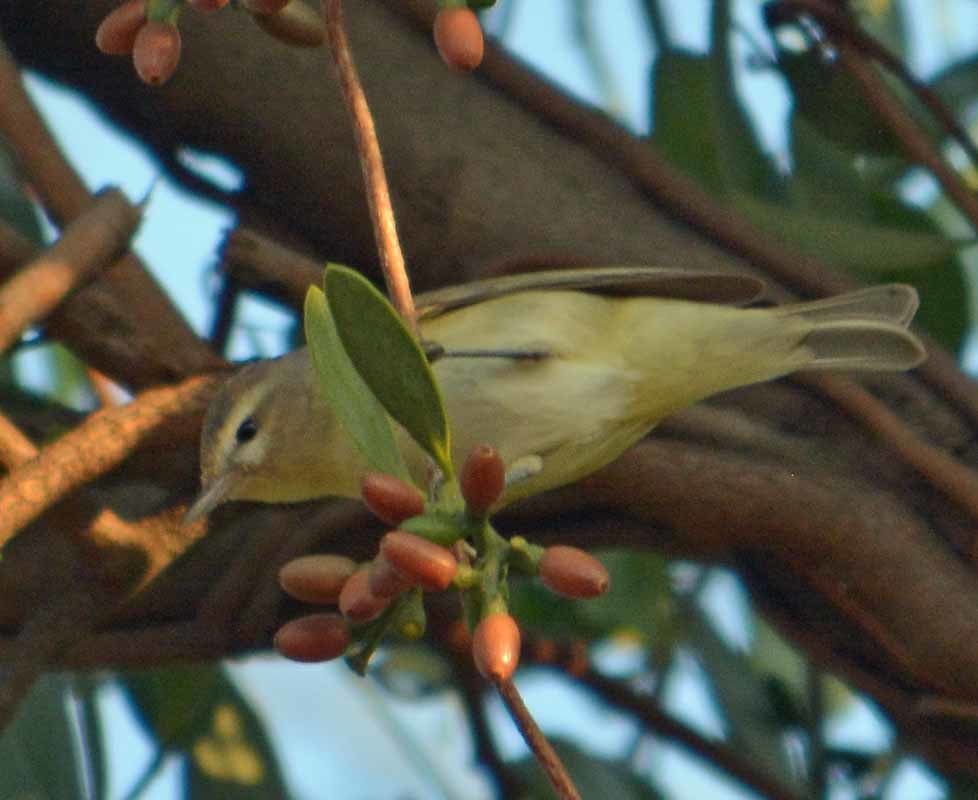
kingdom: Animalia
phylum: Chordata
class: Aves
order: Passeriformes
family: Vireonidae
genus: Vireo
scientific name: Vireo gilvus
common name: Warbling vireo
